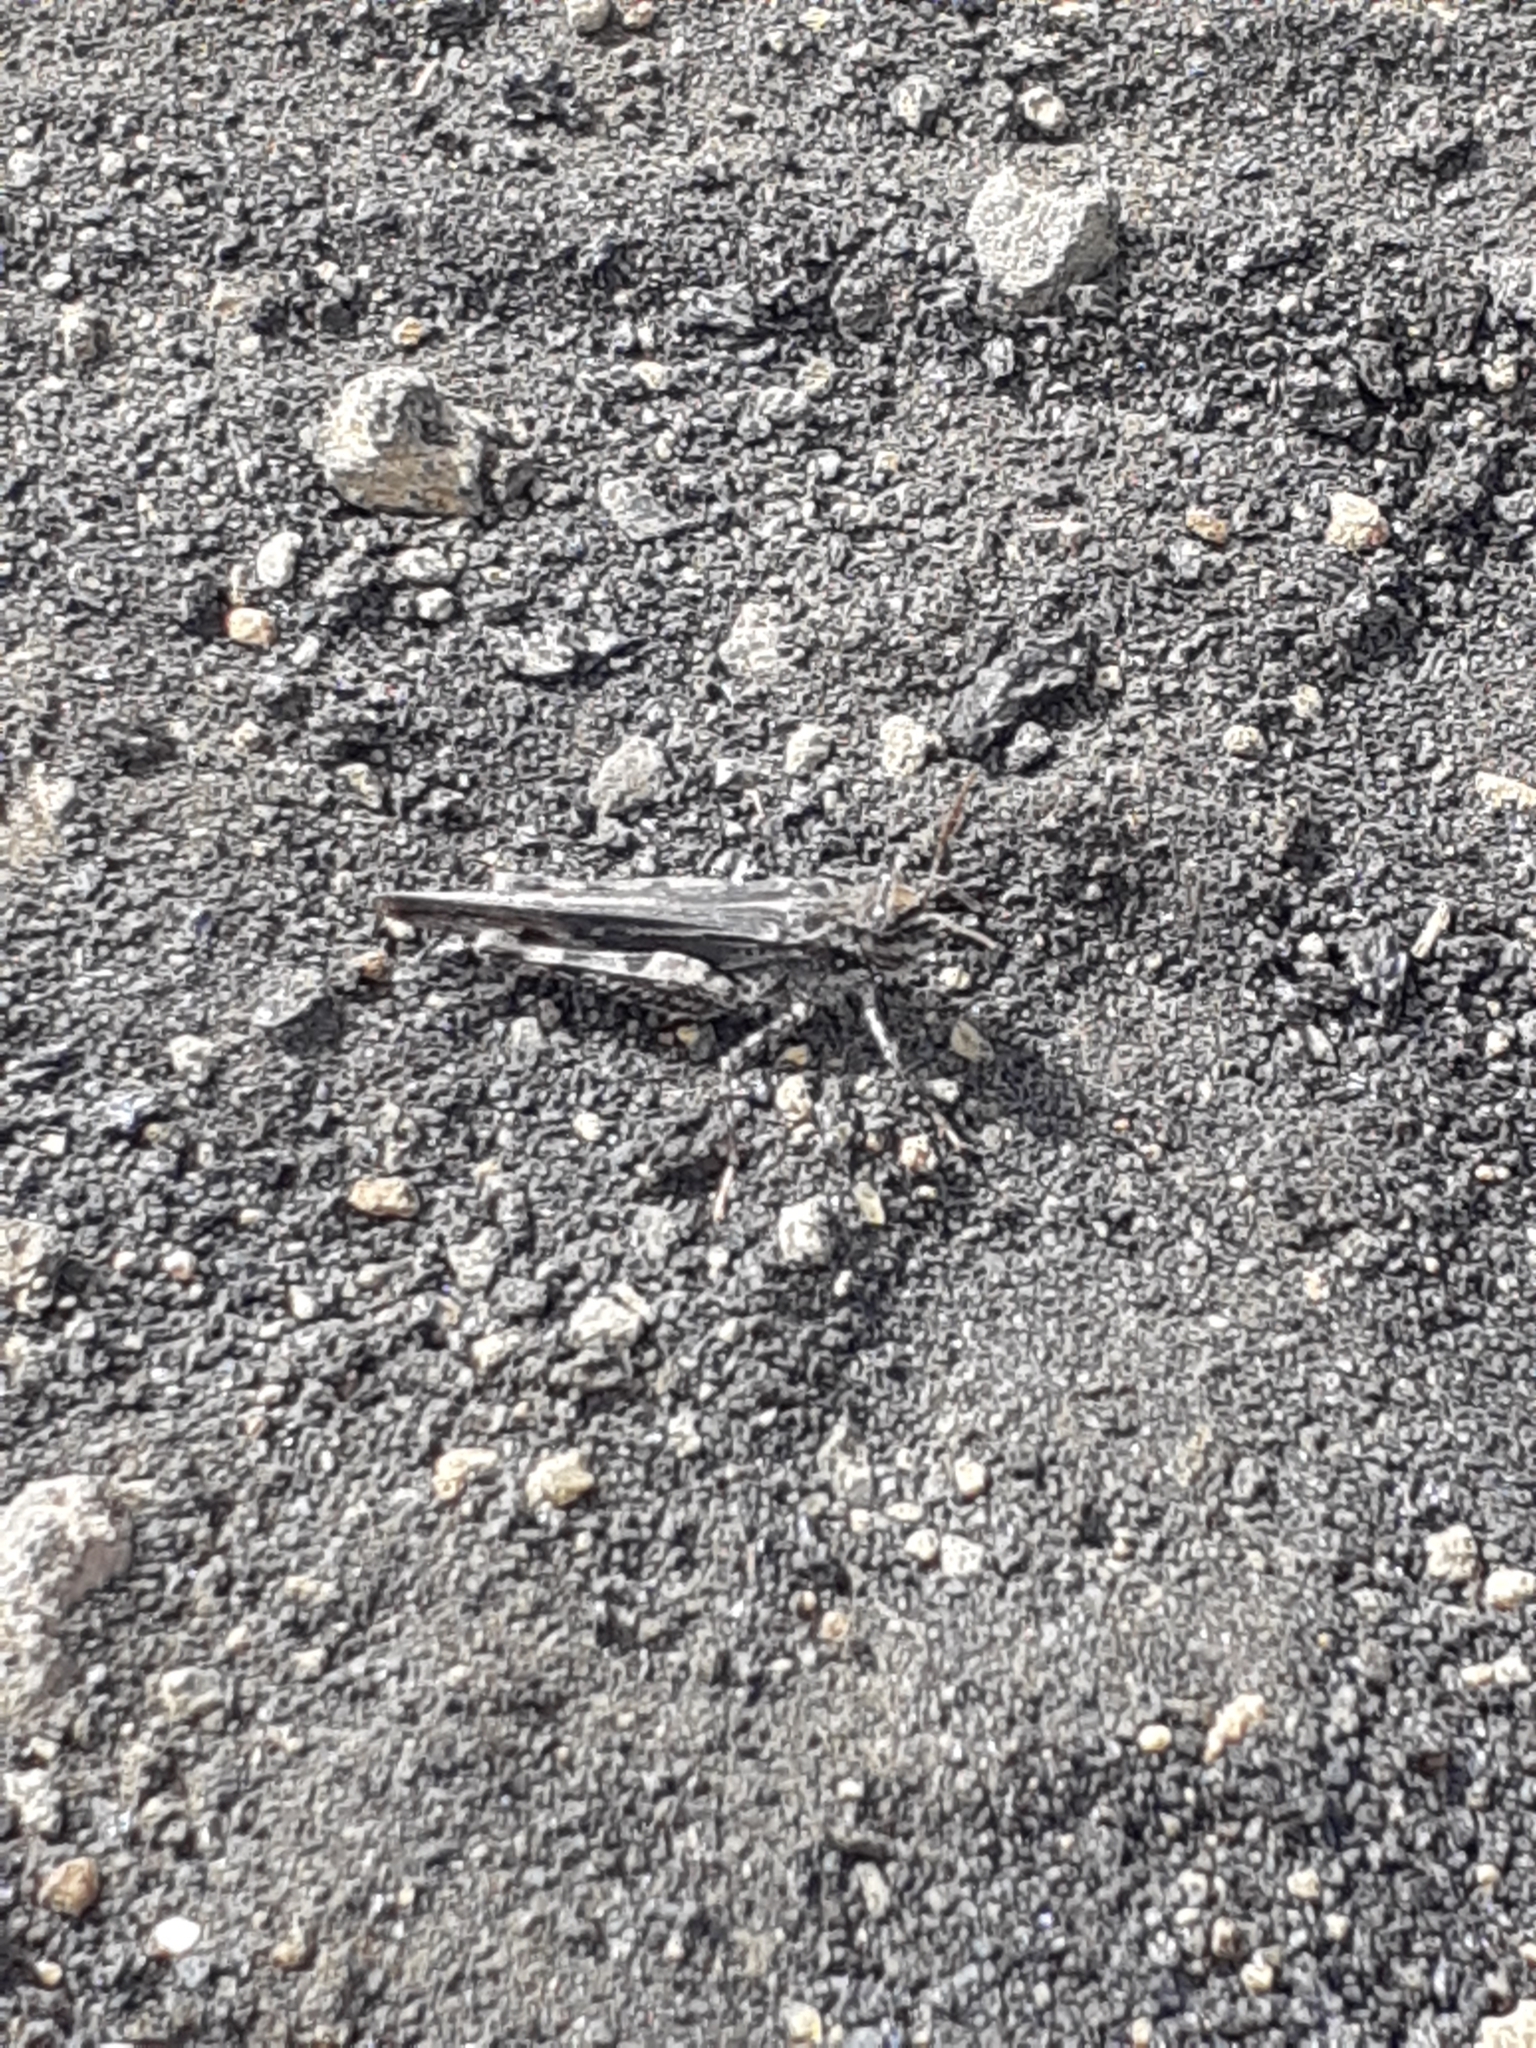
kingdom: Animalia
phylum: Arthropoda
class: Insecta
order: Orthoptera
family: Acrididae
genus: Acrotylus
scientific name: Acrotylus insubricus
